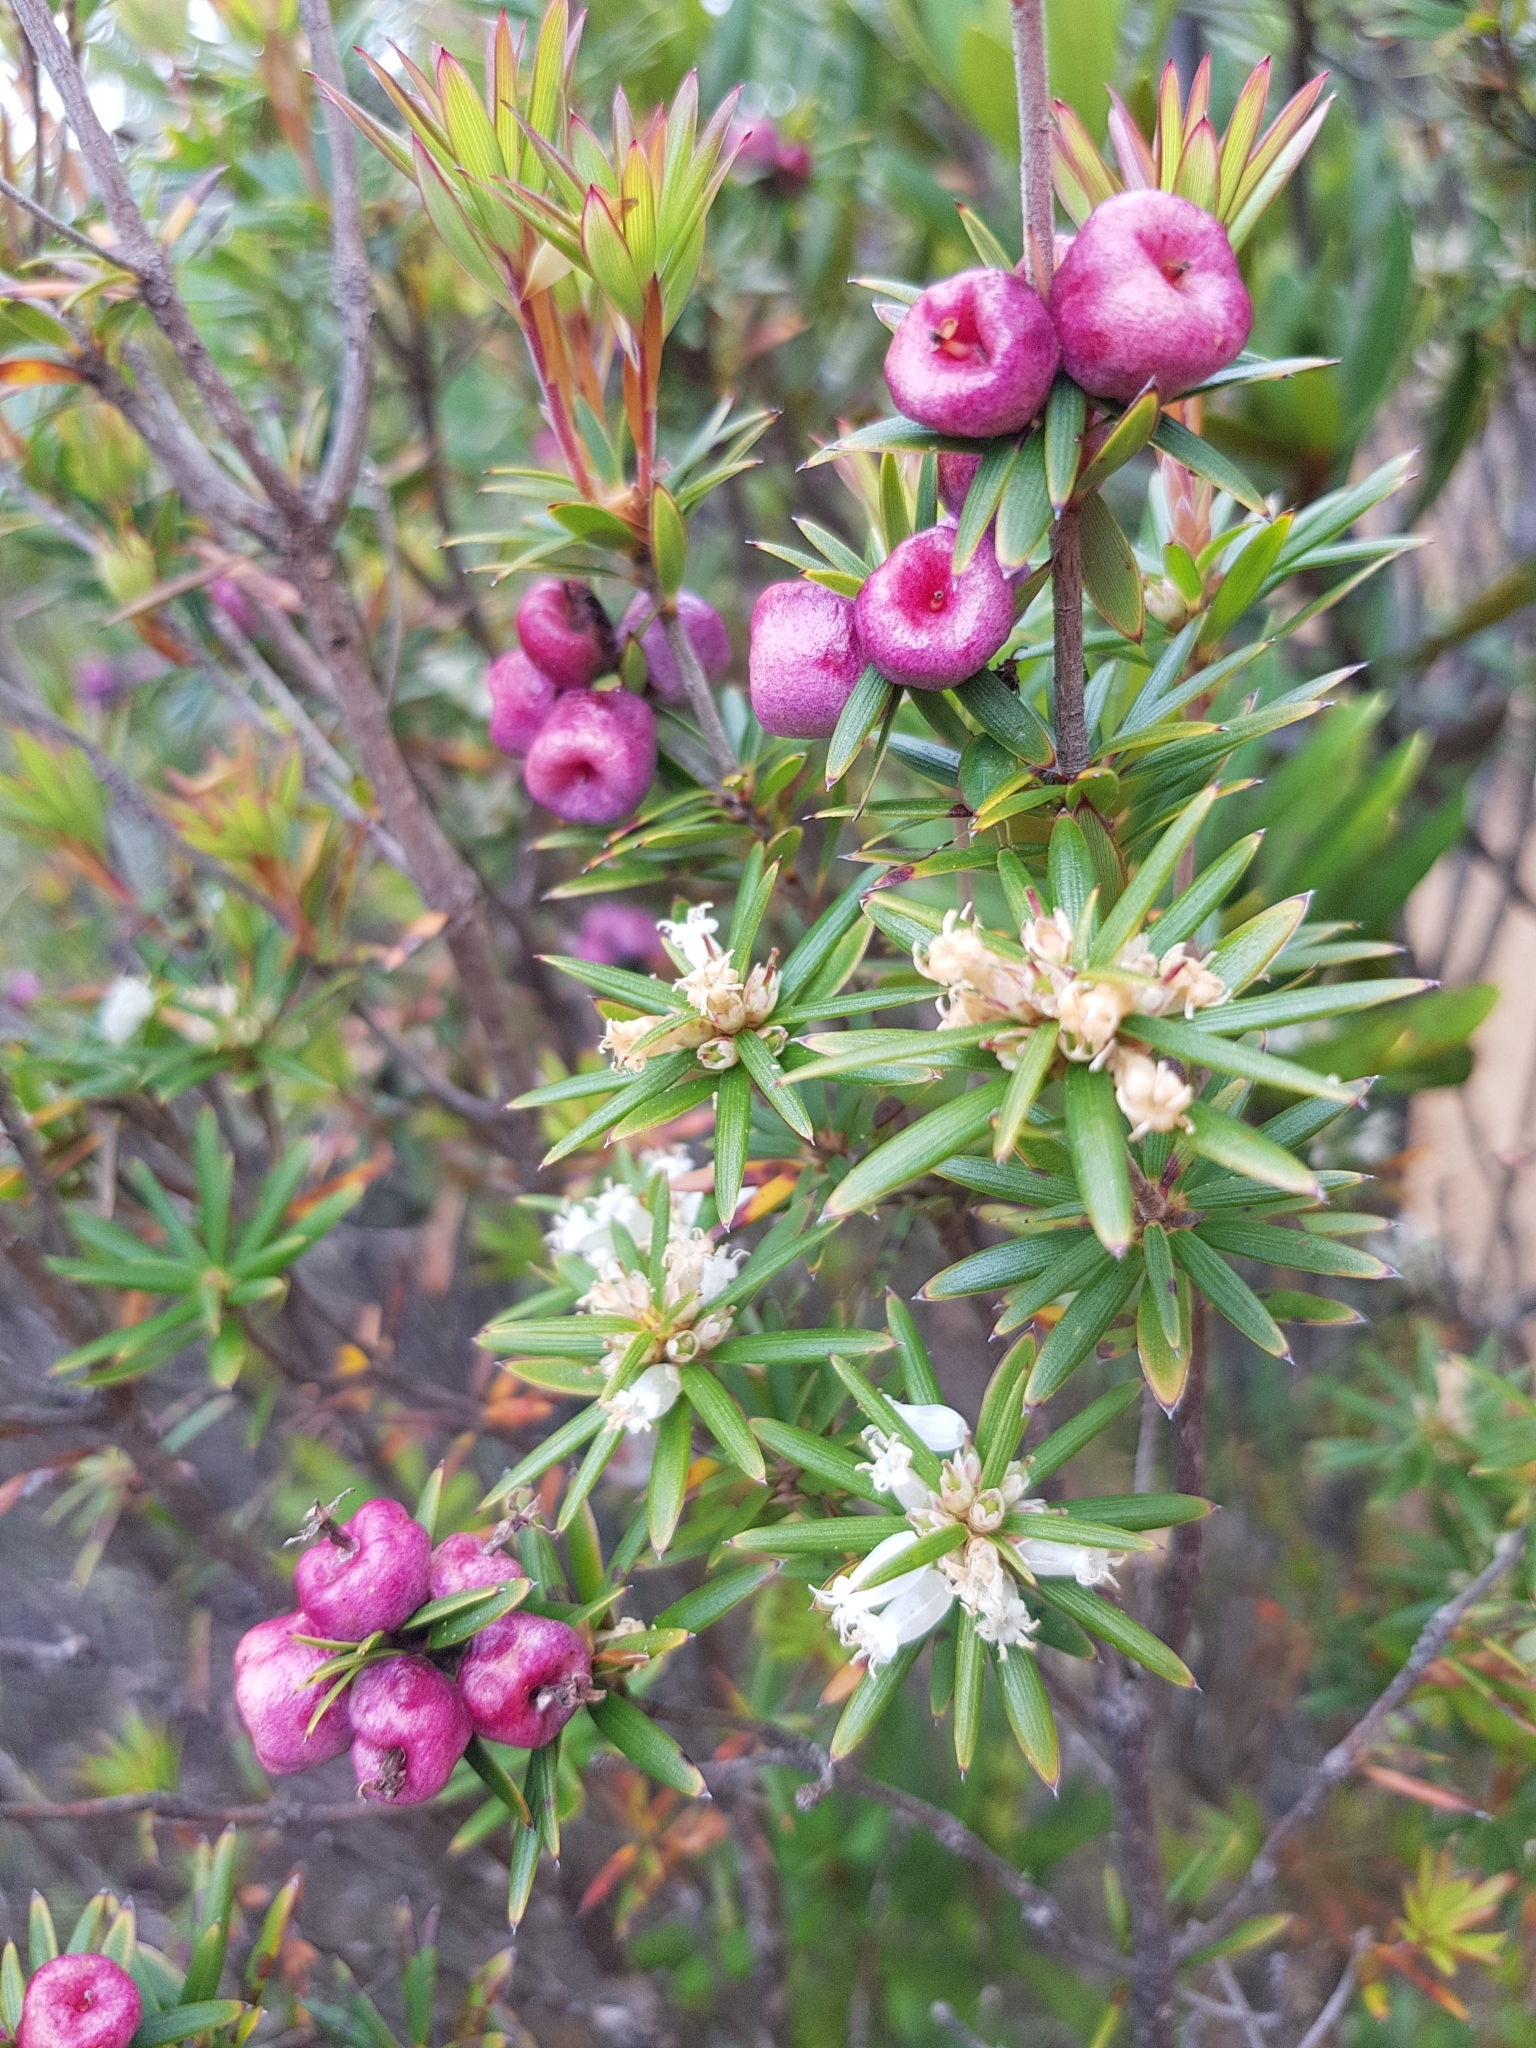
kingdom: Plantae
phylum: Tracheophyta
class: Magnoliopsida
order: Ericales
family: Ericaceae
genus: Cyathodes
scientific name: Cyathodes glauca
